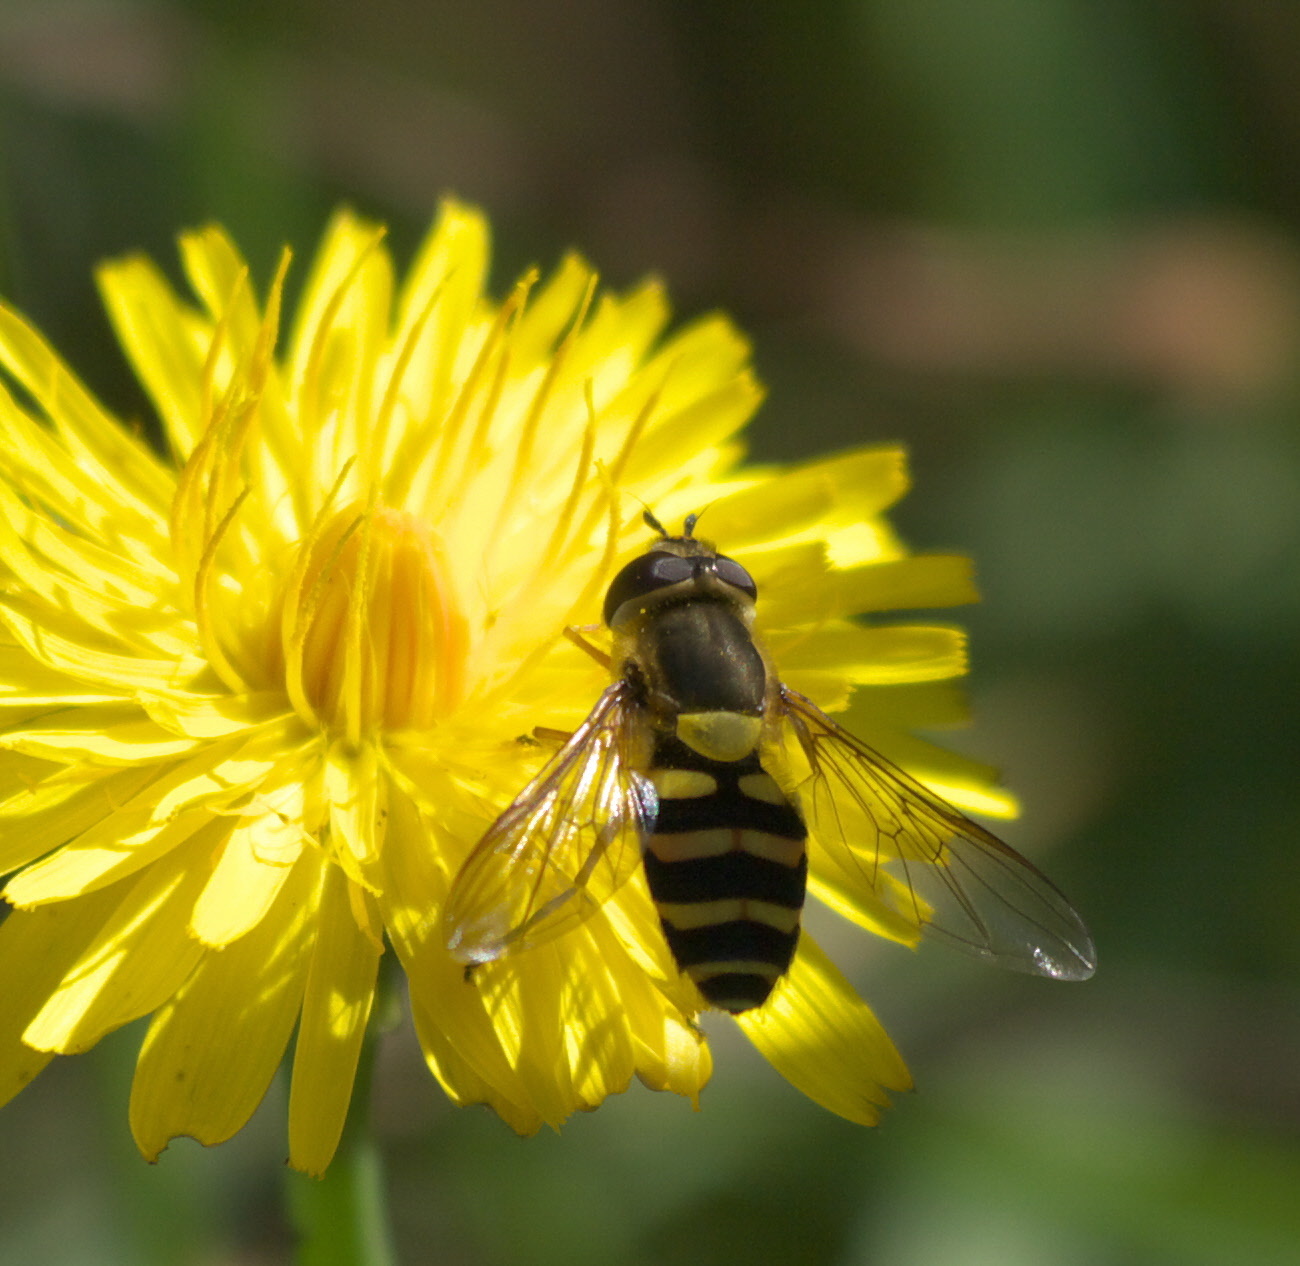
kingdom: Animalia
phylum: Arthropoda
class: Insecta
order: Diptera
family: Syrphidae
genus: Syrphus
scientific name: Syrphus
